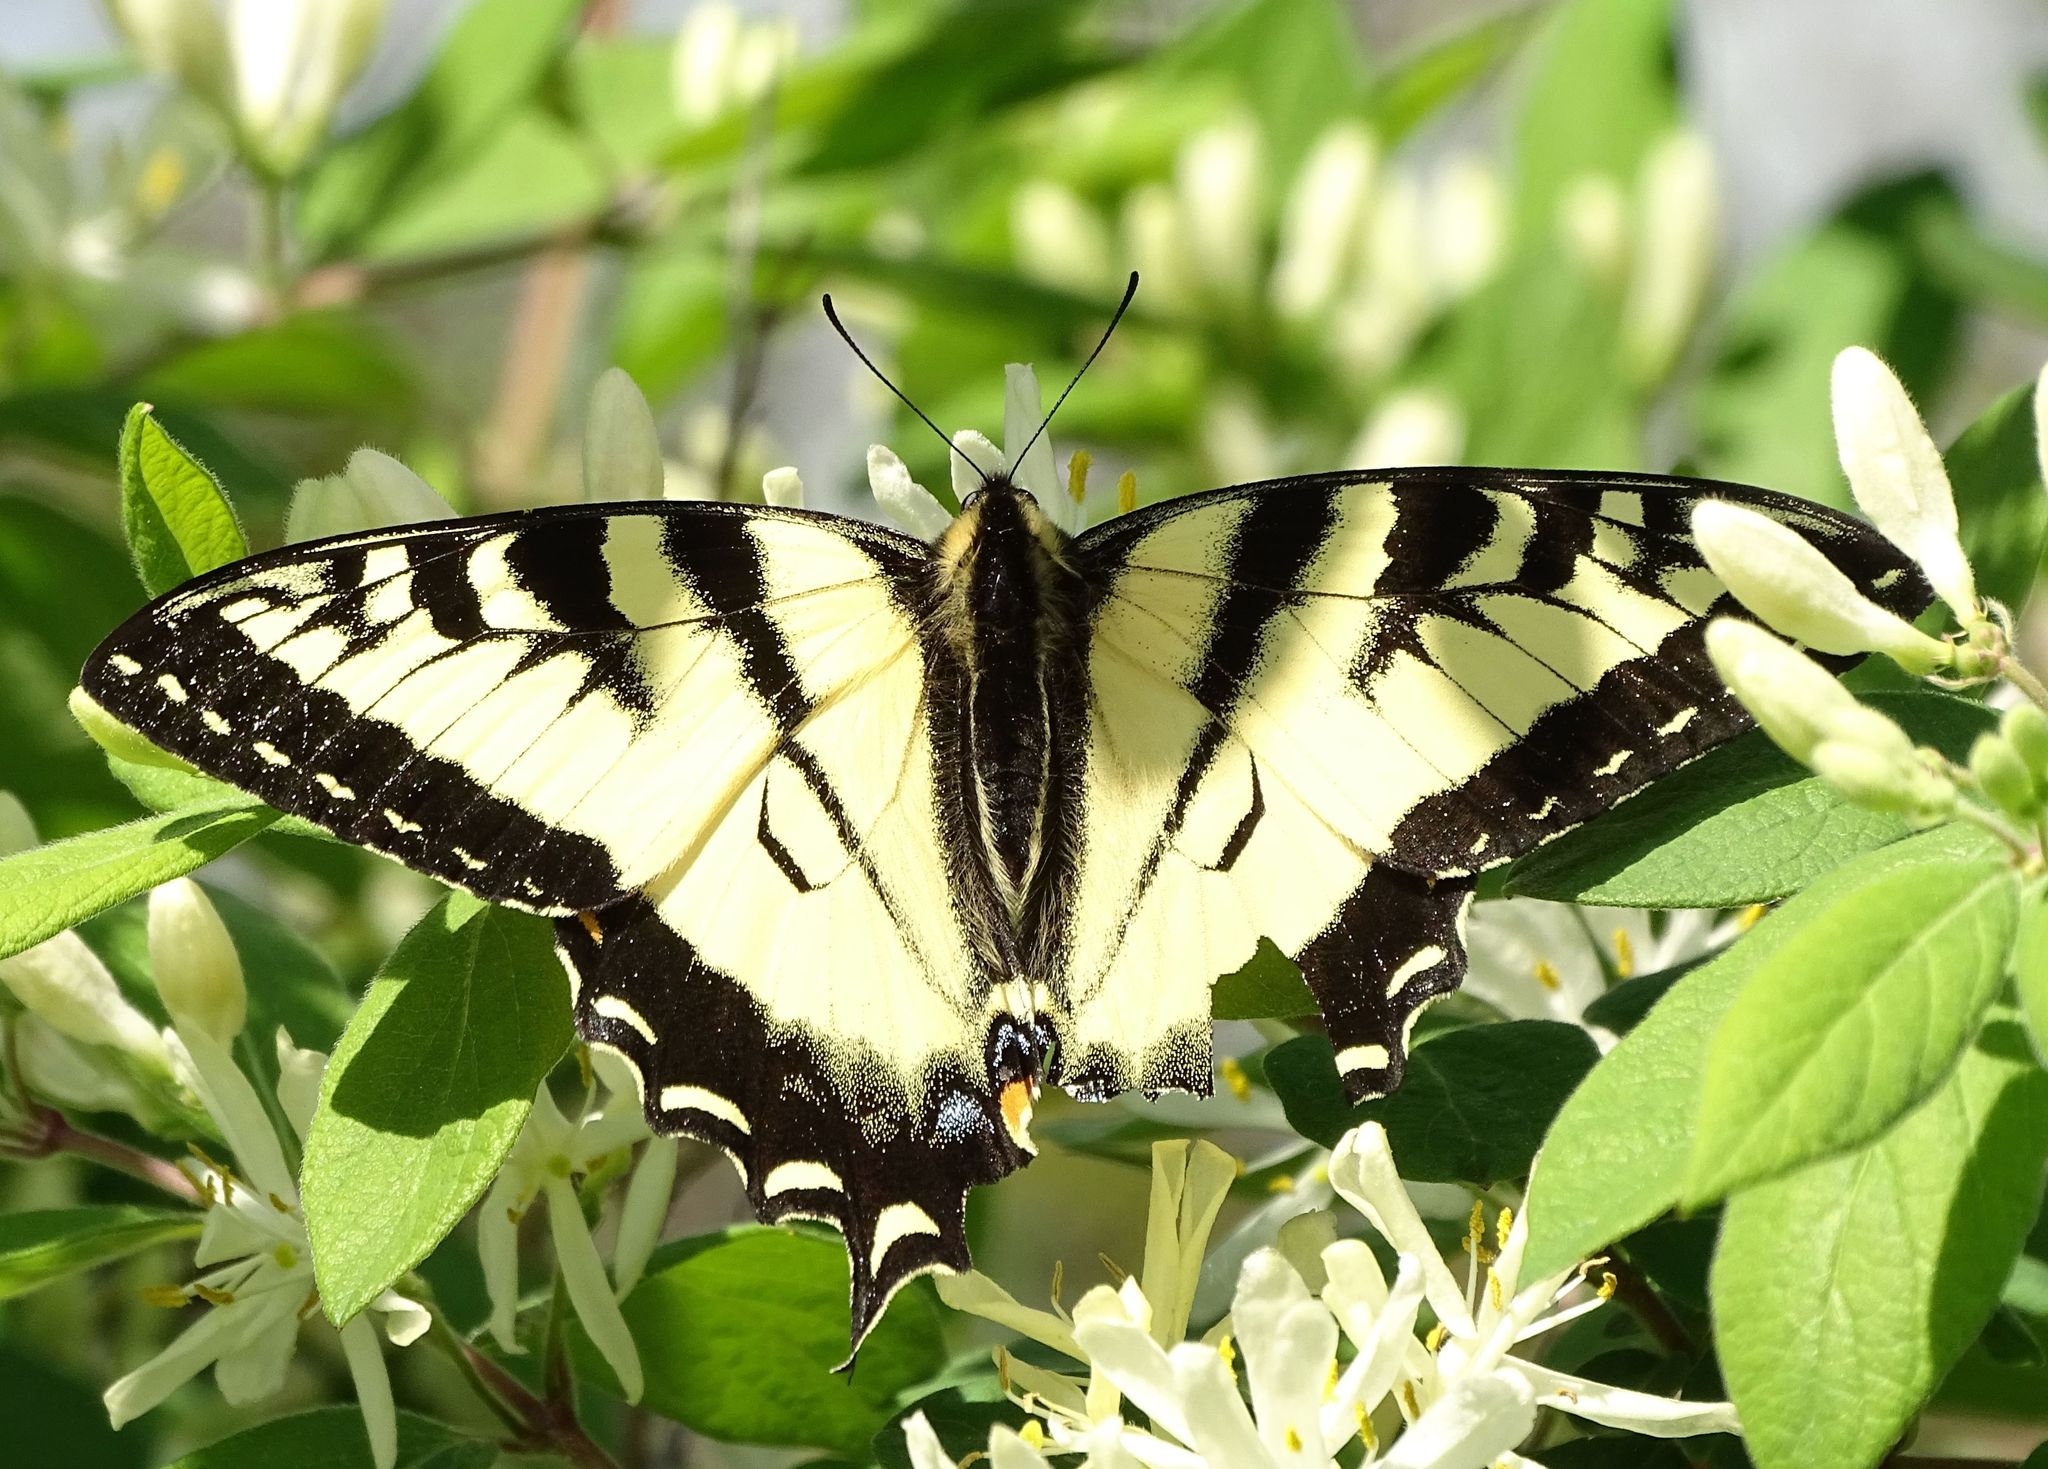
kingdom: Animalia
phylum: Arthropoda
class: Insecta
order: Lepidoptera
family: Papilionidae
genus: Papilio
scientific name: Papilio canadensis
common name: Canadian tiger swallowtail
